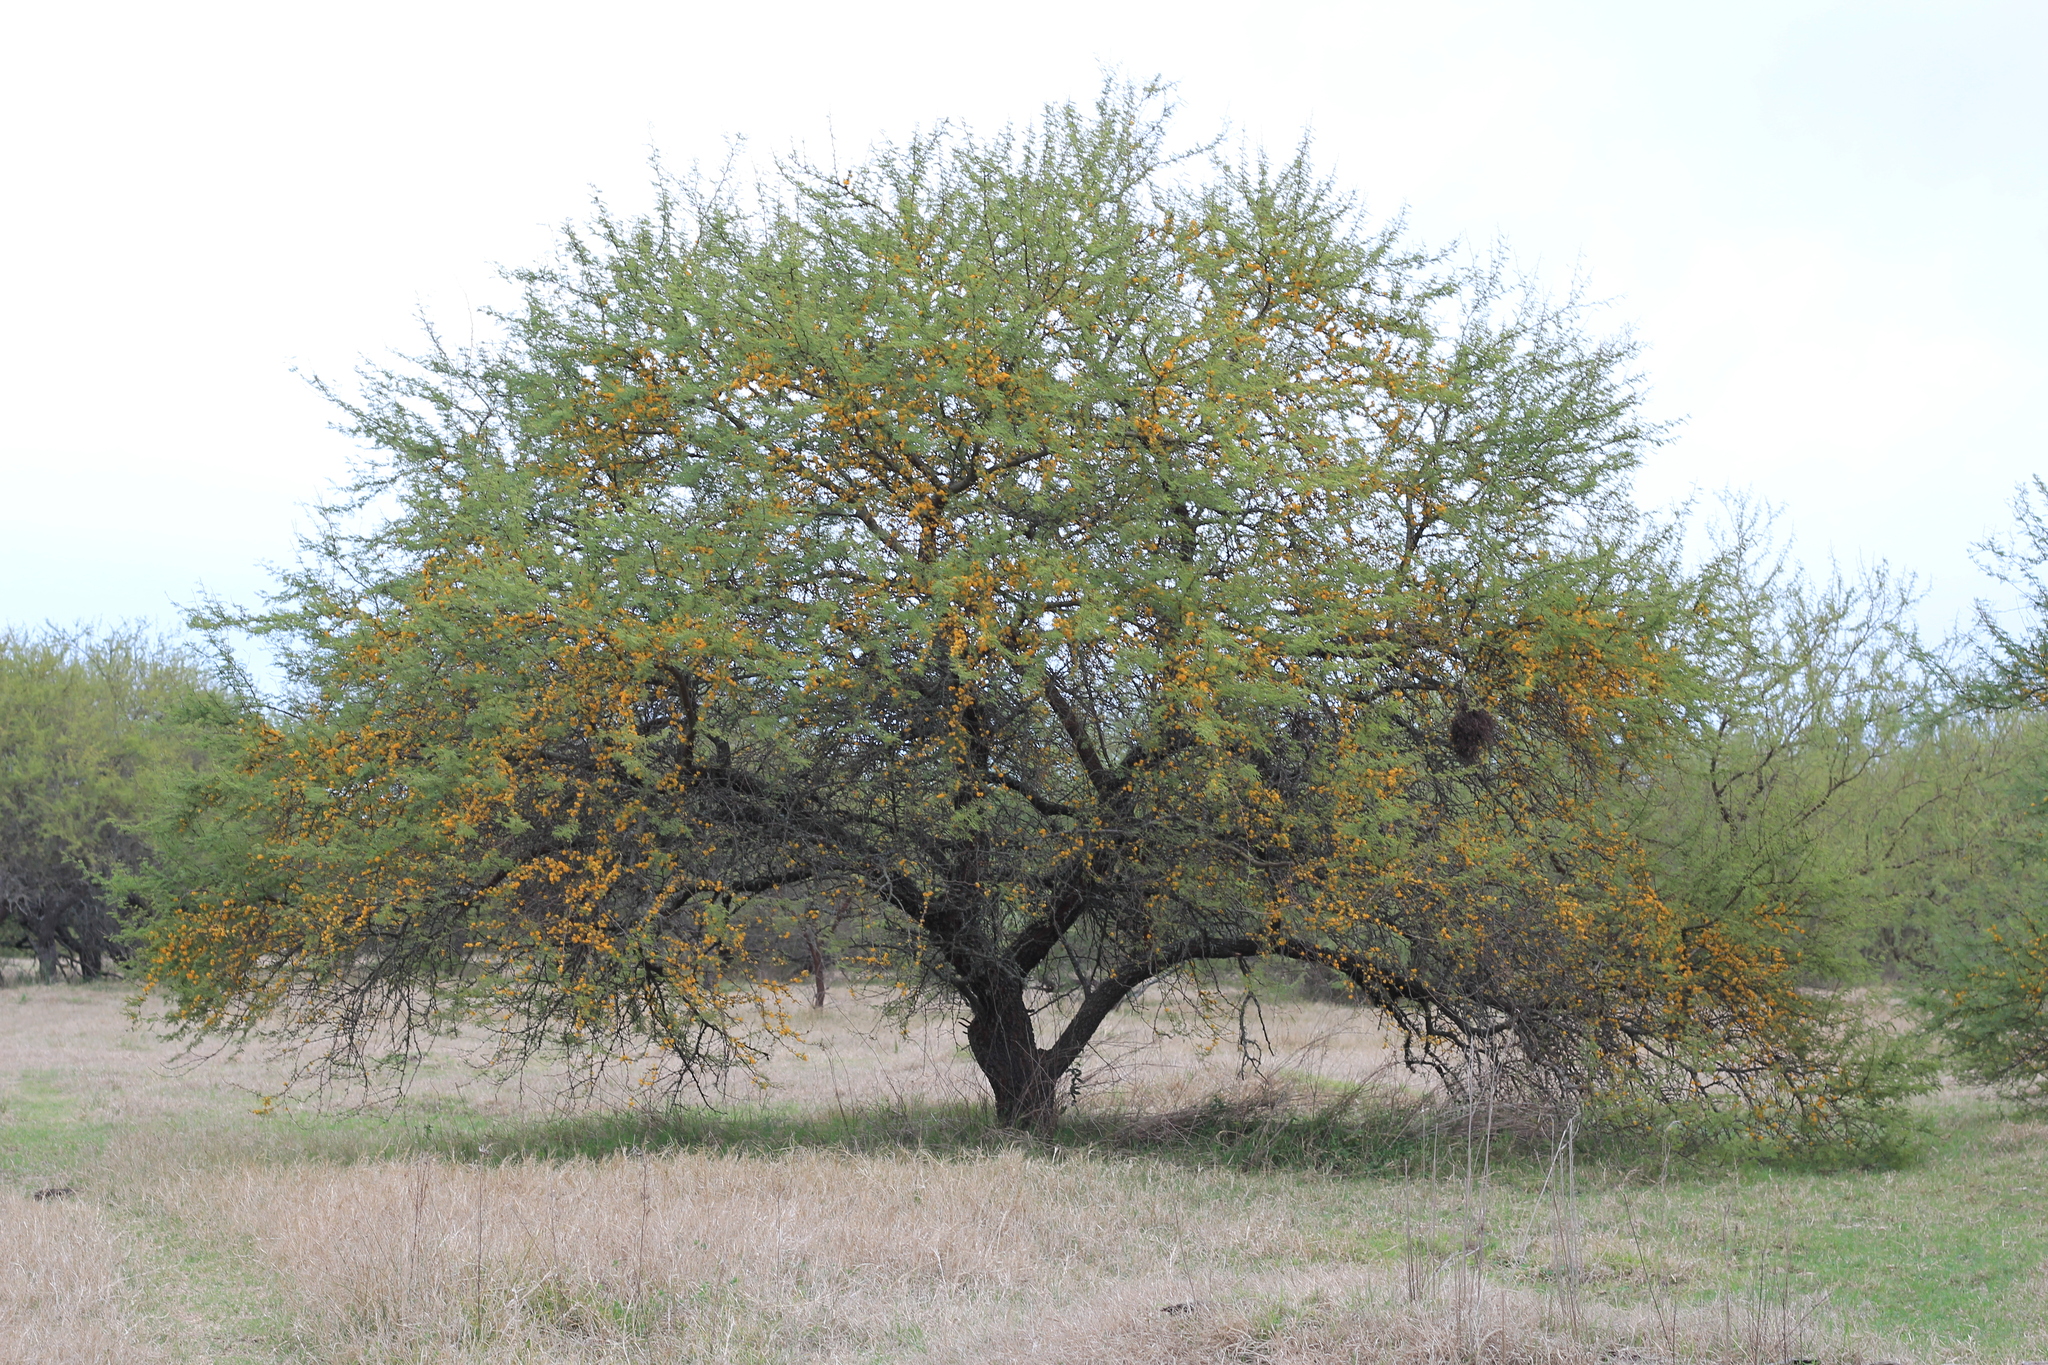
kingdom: Plantae
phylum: Tracheophyta
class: Magnoliopsida
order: Fabales
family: Fabaceae
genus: Vachellia
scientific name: Vachellia caven
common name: Roman cassie
